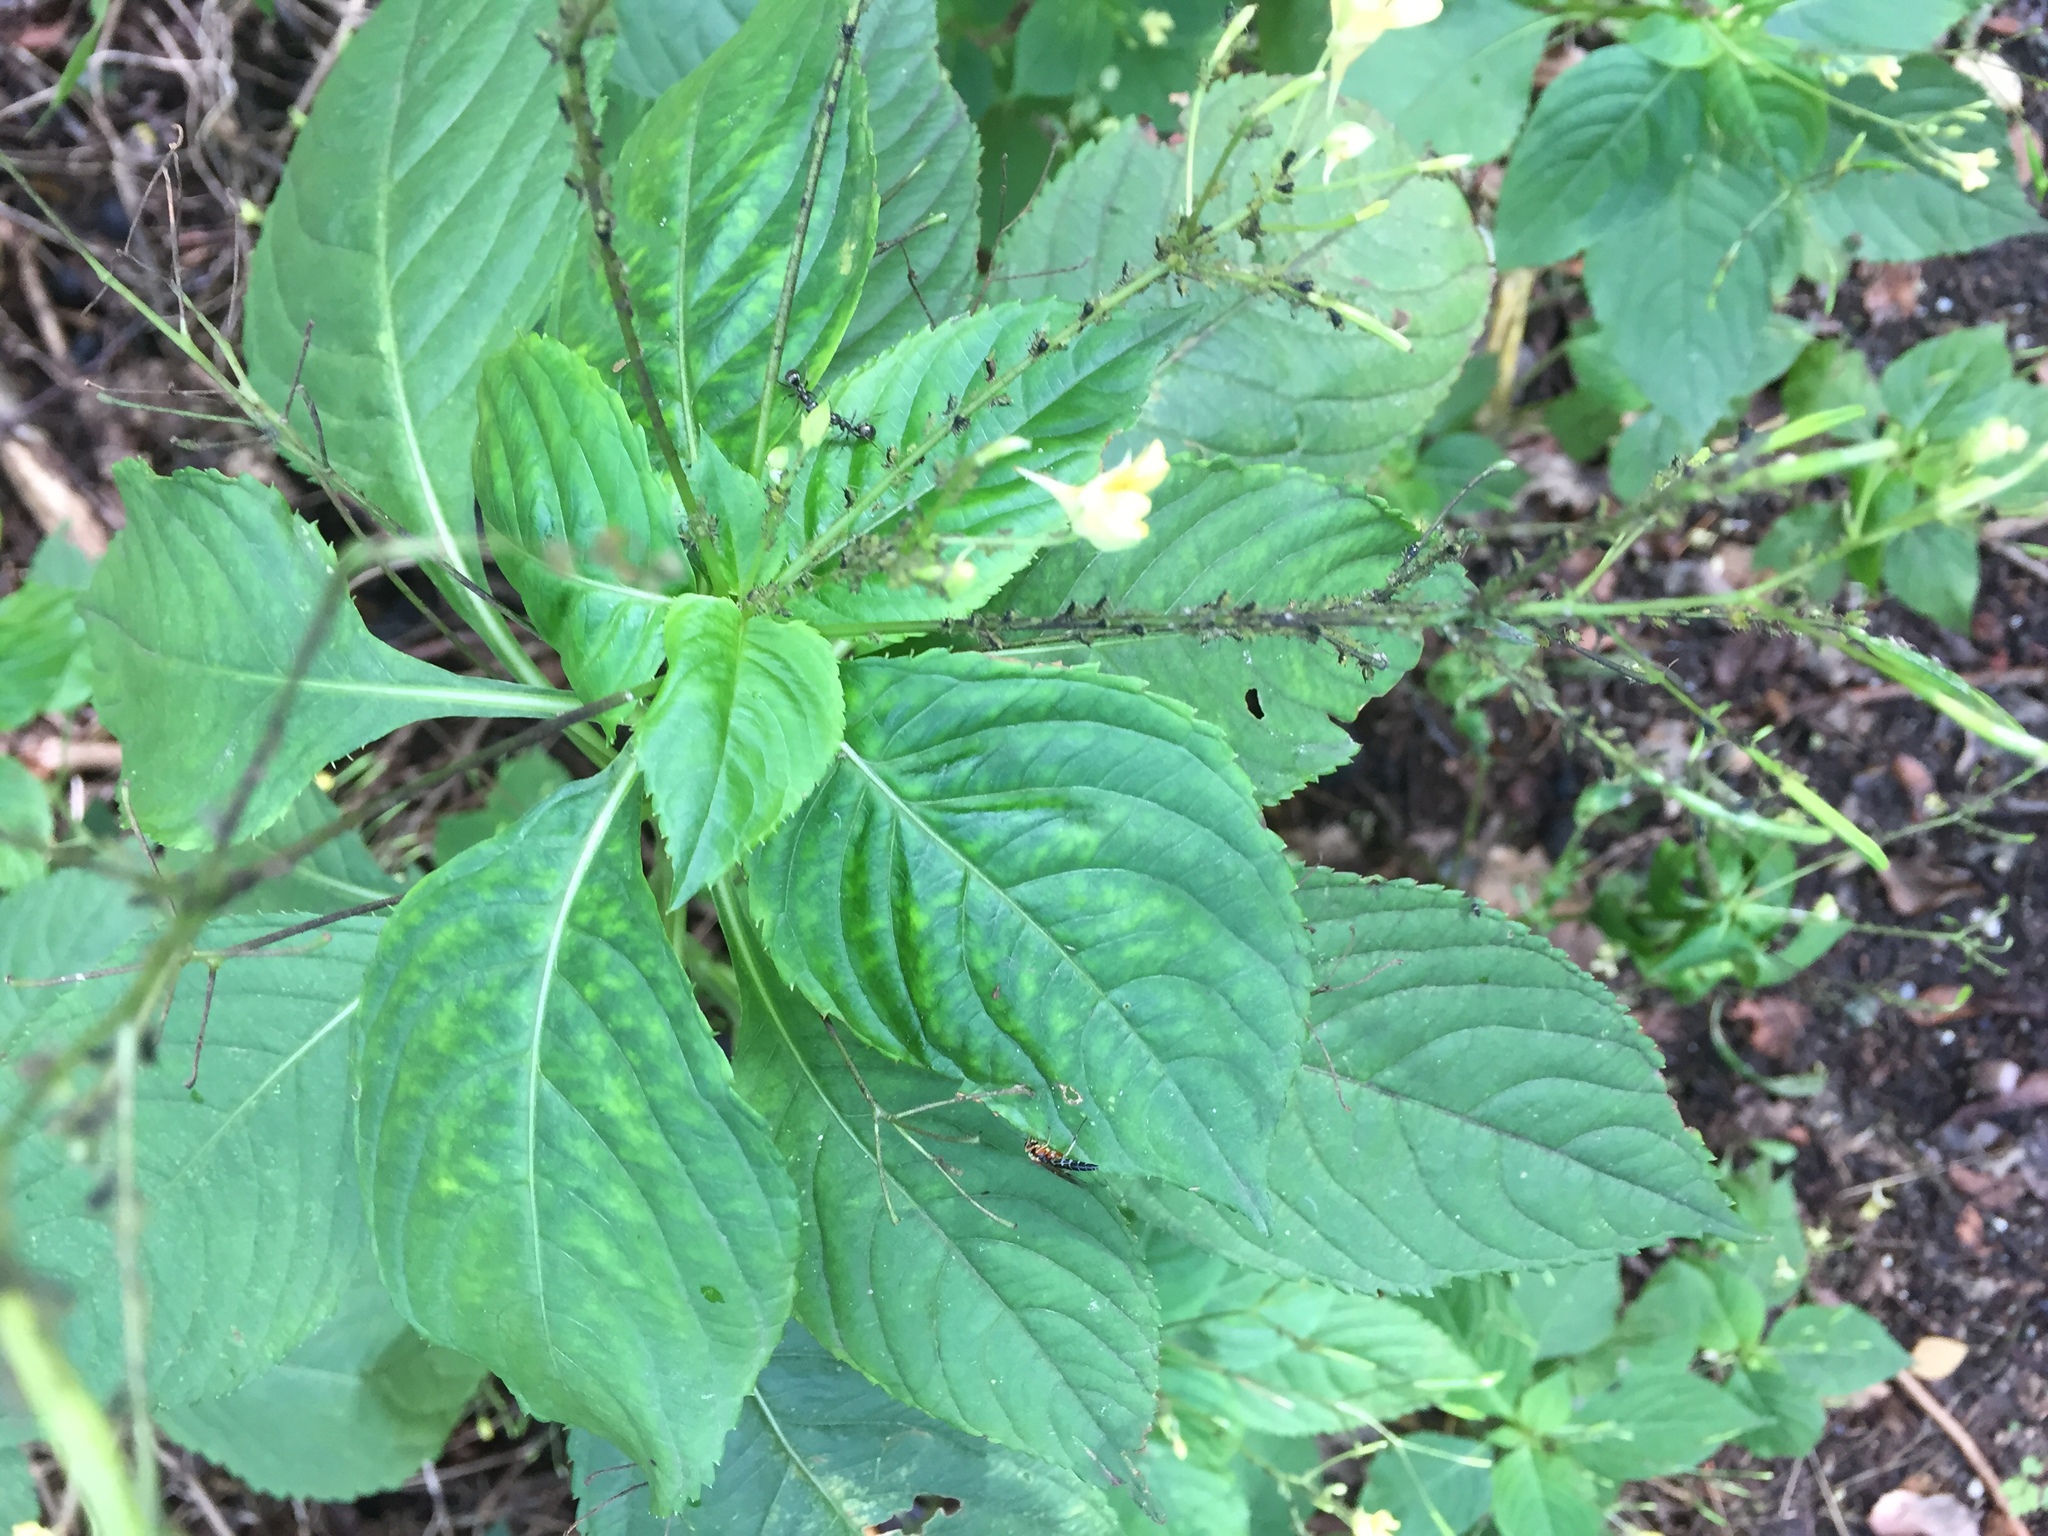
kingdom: Plantae
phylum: Tracheophyta
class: Magnoliopsida
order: Ericales
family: Balsaminaceae
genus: Impatiens
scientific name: Impatiens parviflora
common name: Small balsam
